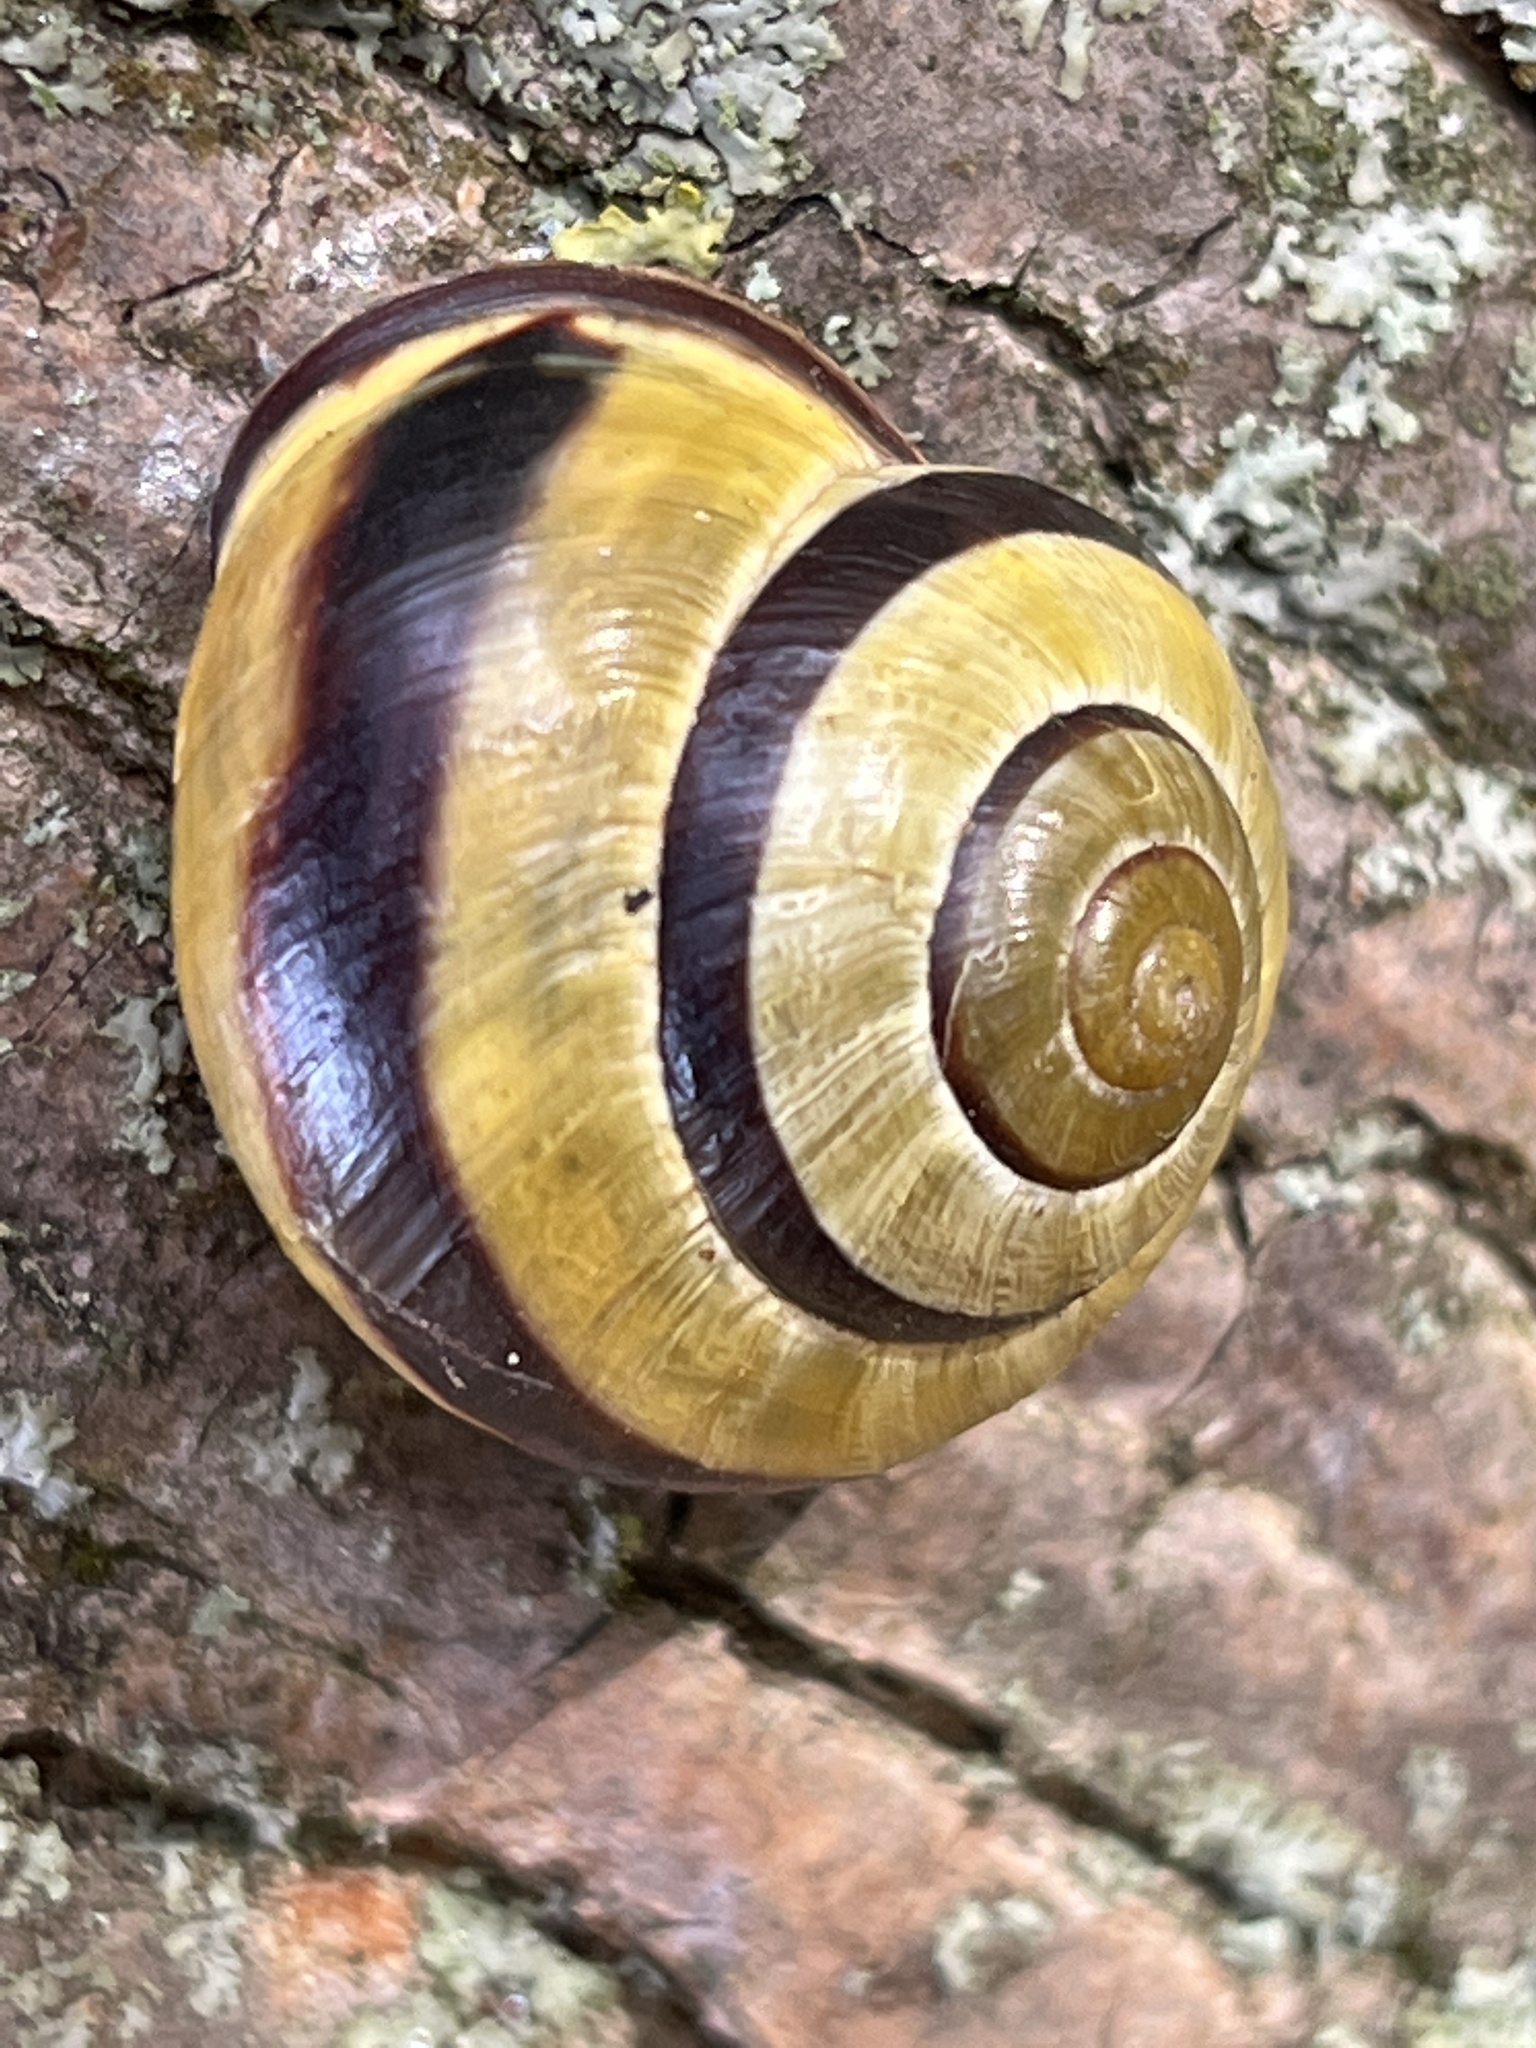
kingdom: Animalia
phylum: Mollusca
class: Gastropoda
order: Stylommatophora
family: Helicidae
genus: Cepaea
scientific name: Cepaea nemoralis
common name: Grovesnail
